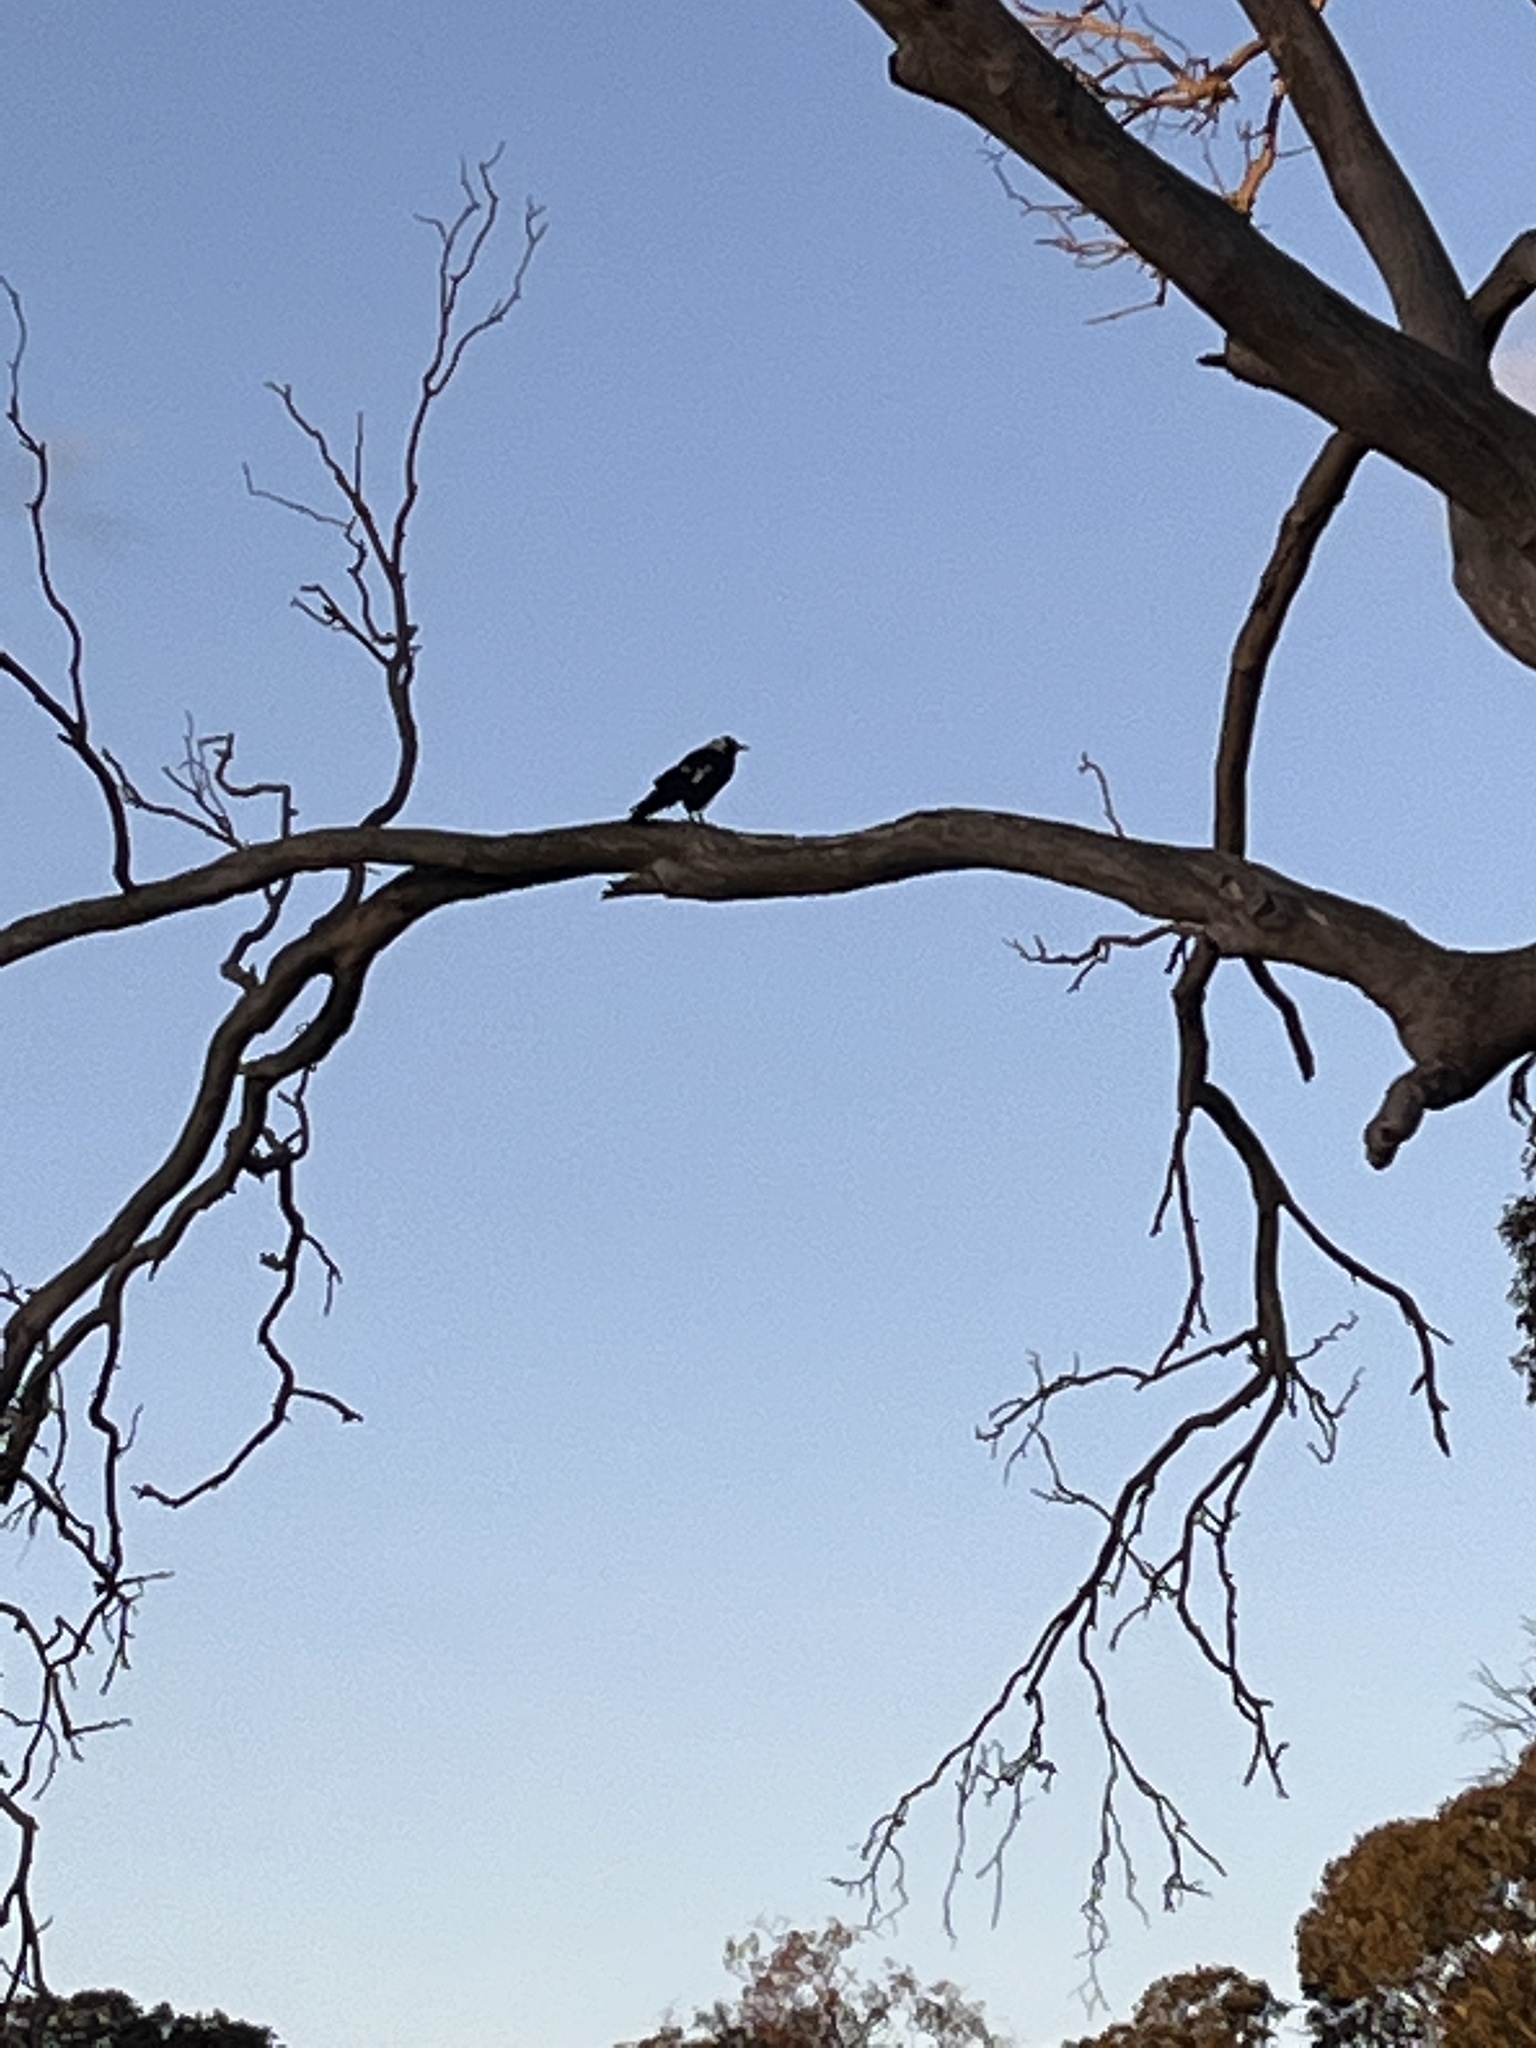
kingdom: Animalia
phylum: Chordata
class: Aves
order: Passeriformes
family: Cracticidae
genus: Gymnorhina
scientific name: Gymnorhina tibicen
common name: Australian magpie
